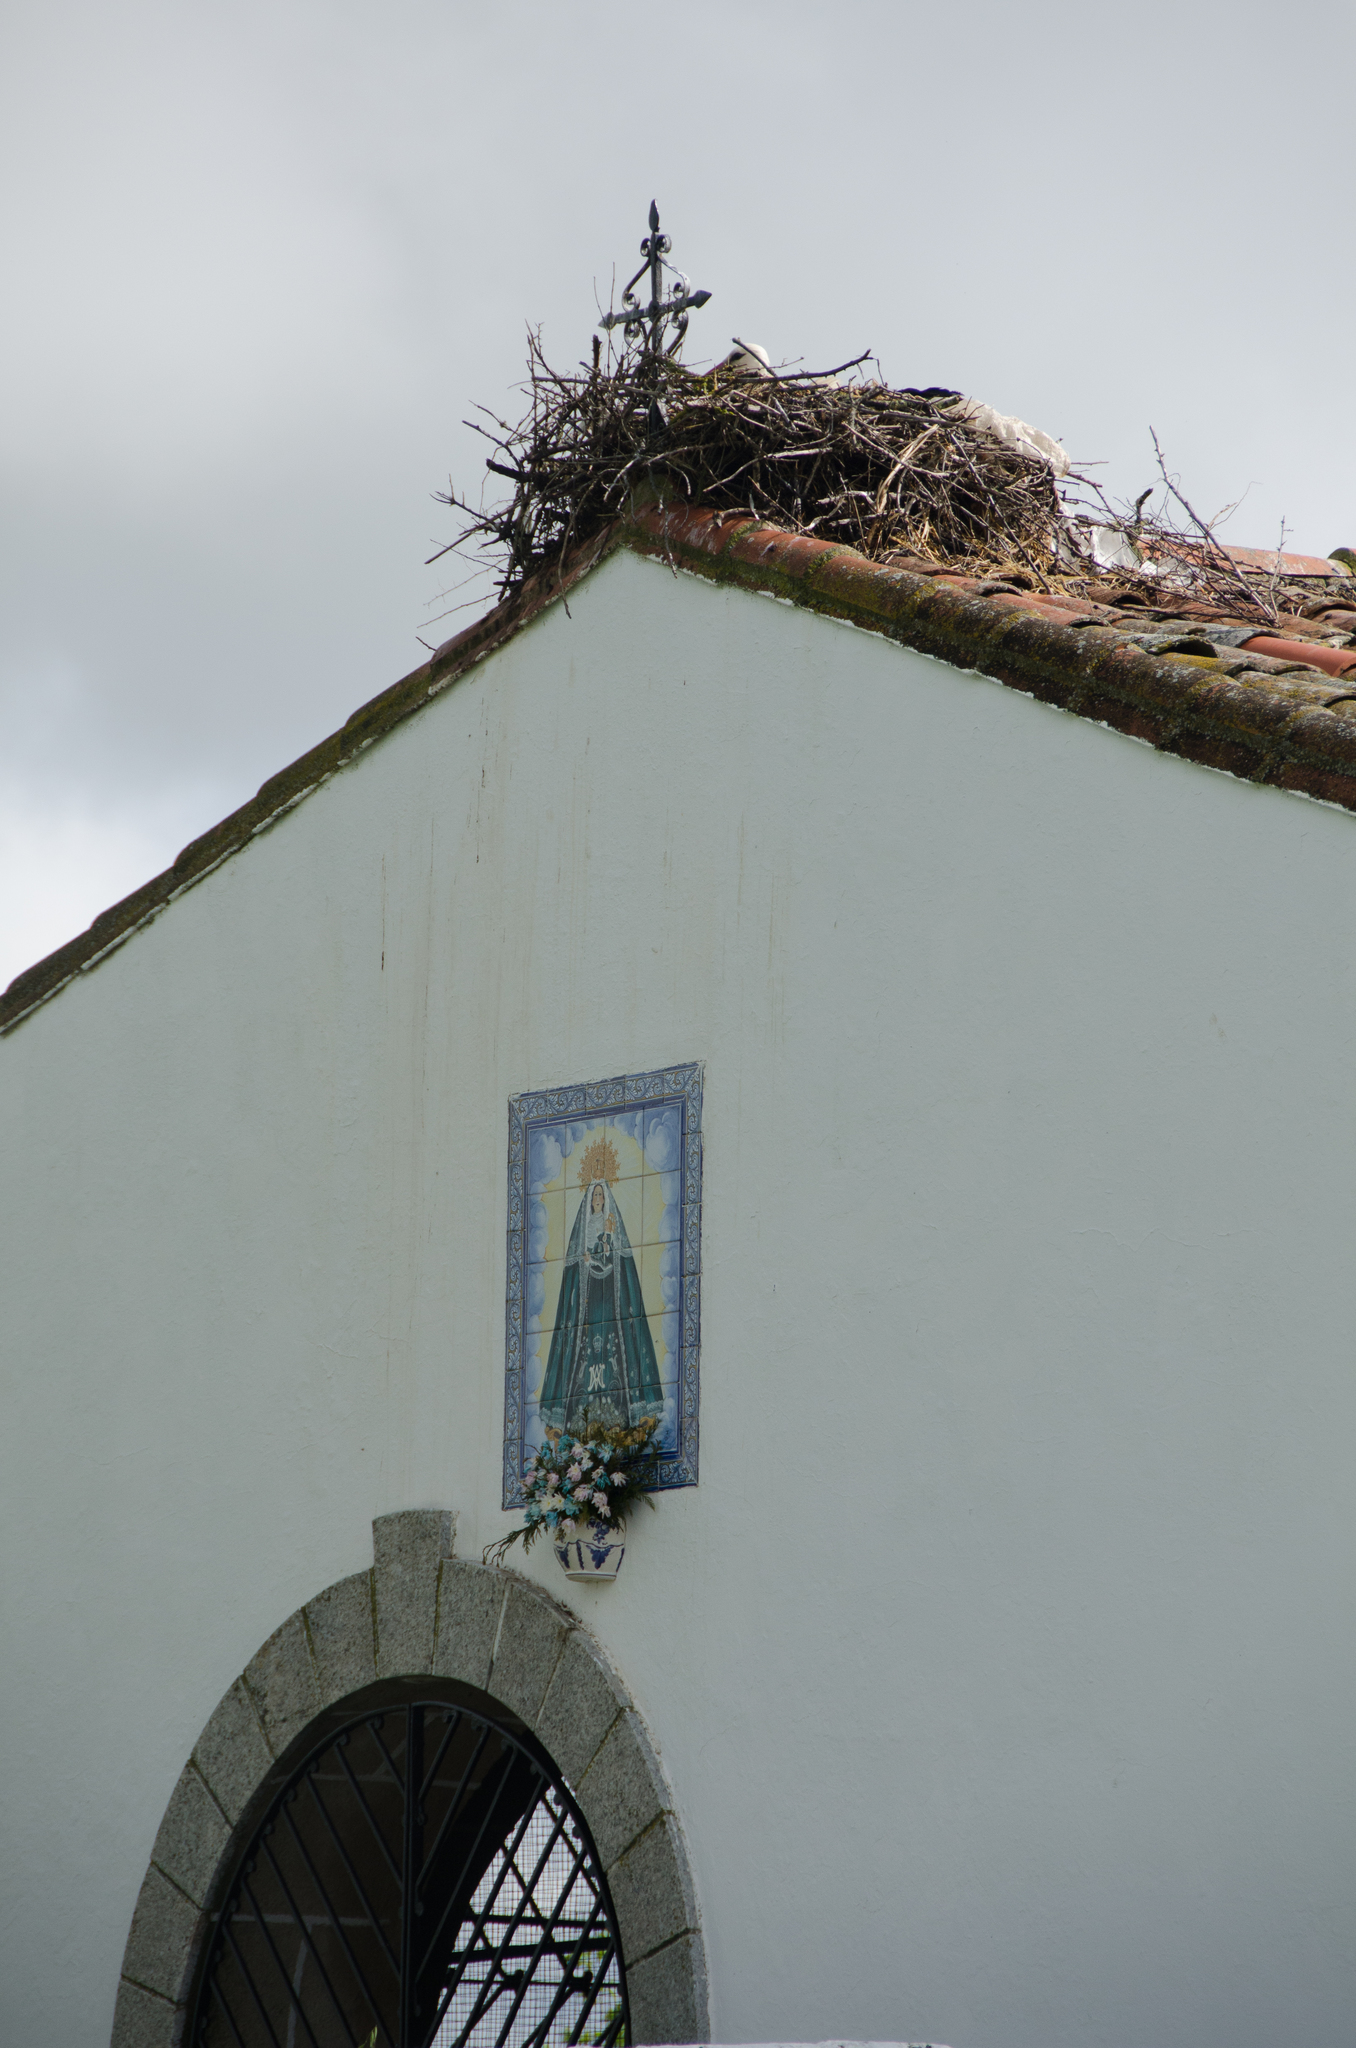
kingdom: Animalia
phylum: Chordata
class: Aves
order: Ciconiiformes
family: Ciconiidae
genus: Ciconia
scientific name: Ciconia ciconia
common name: White stork
